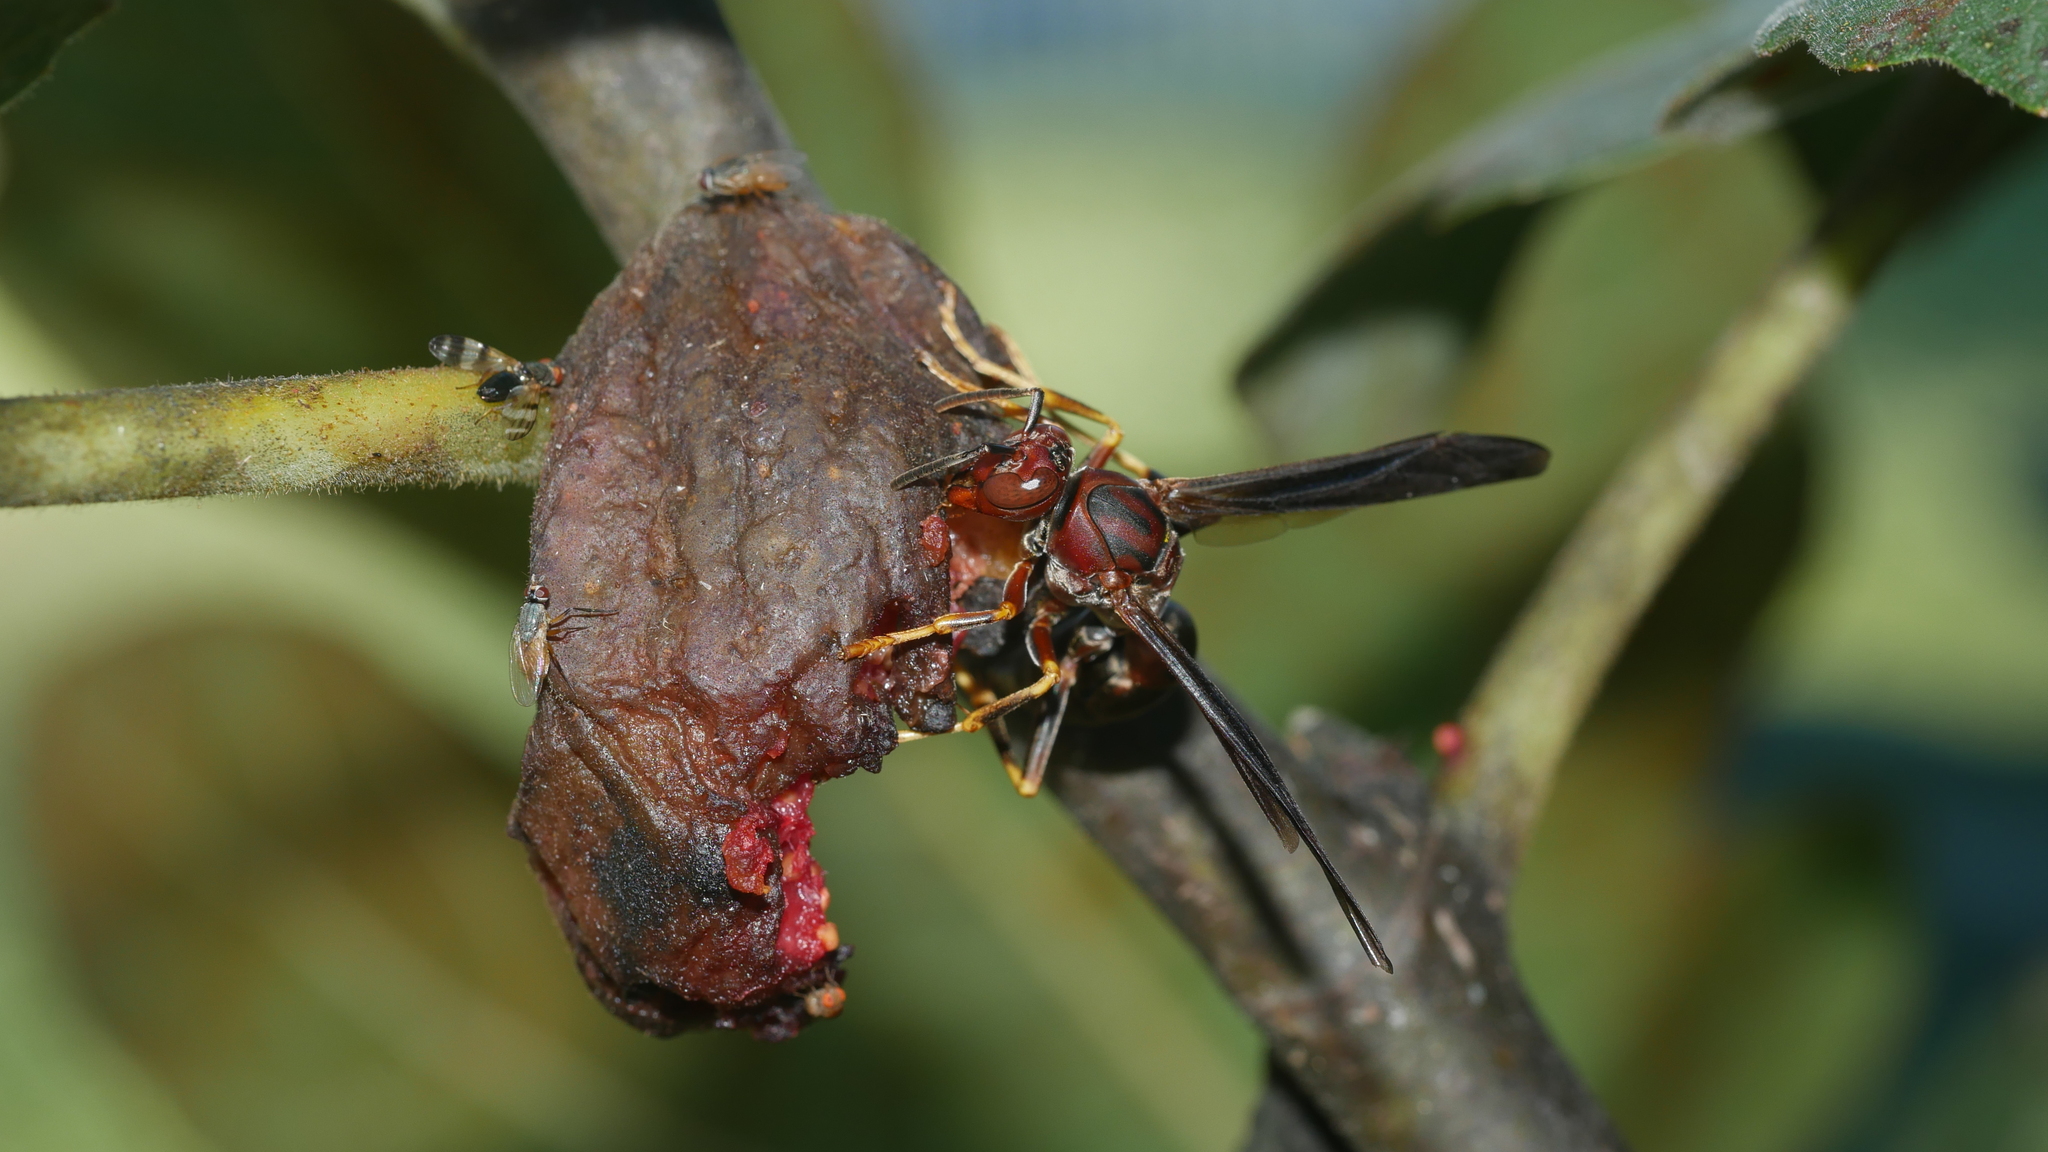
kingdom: Animalia
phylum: Arthropoda
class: Insecta
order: Hymenoptera
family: Eumenidae
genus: Polistes
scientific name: Polistes metricus
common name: Metric paper wasp
